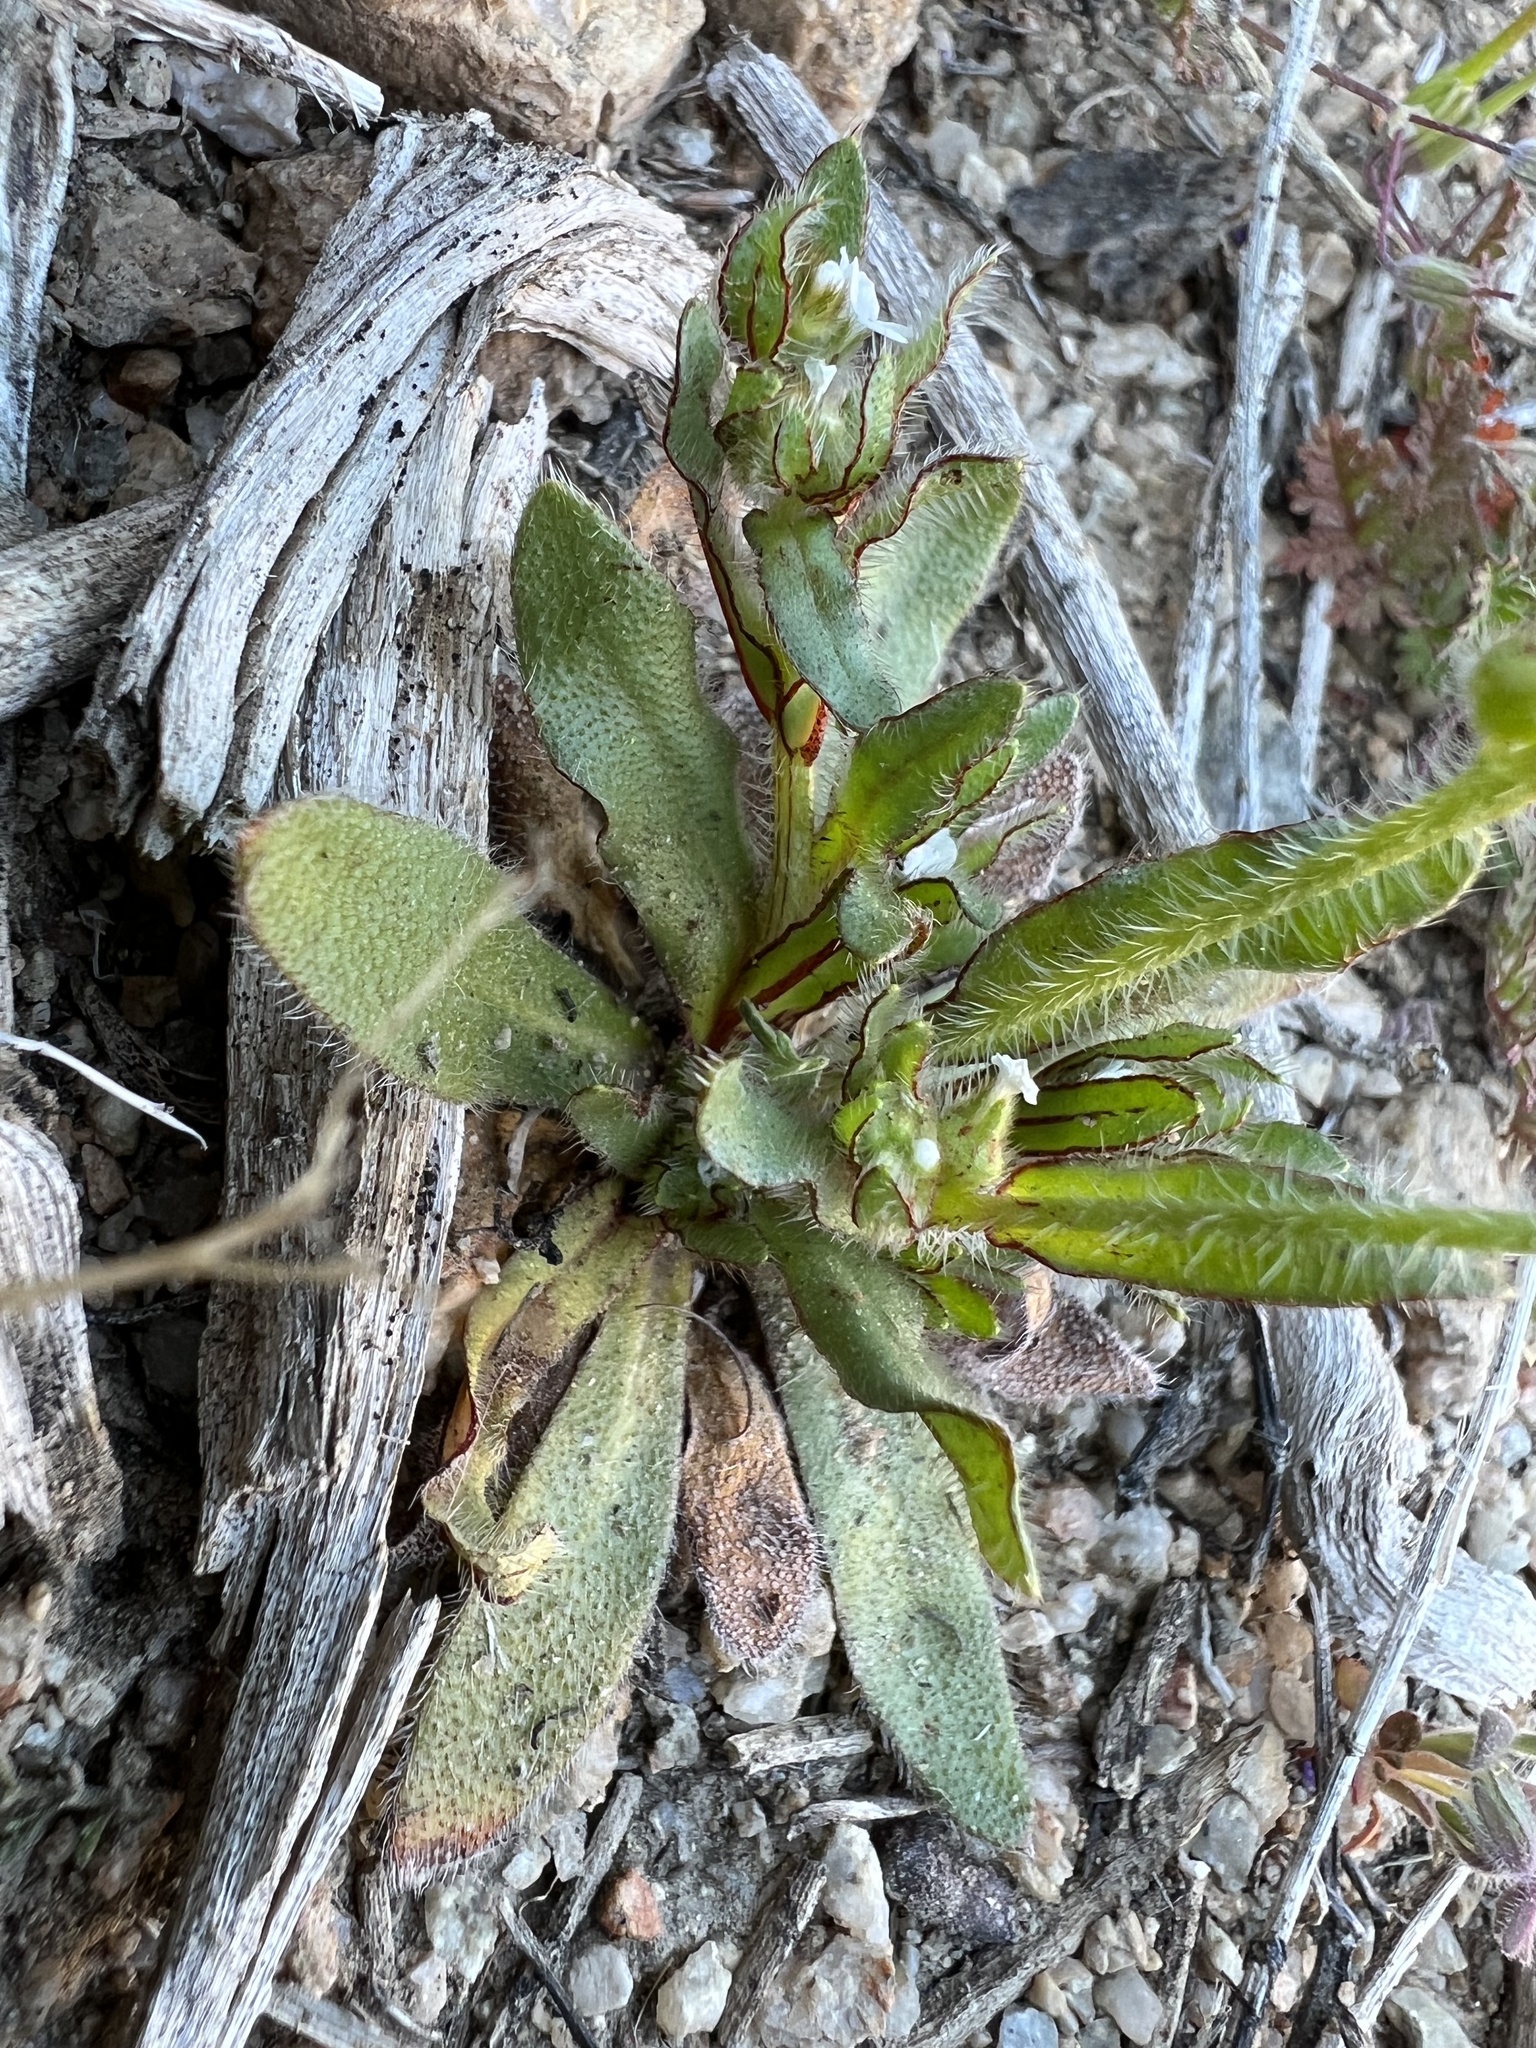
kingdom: Plantae
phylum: Tracheophyta
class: Magnoliopsida
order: Boraginales
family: Boraginaceae
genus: Plagiobothrys
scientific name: Plagiobothrys arizonicus
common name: Arizona popcorn-flower
